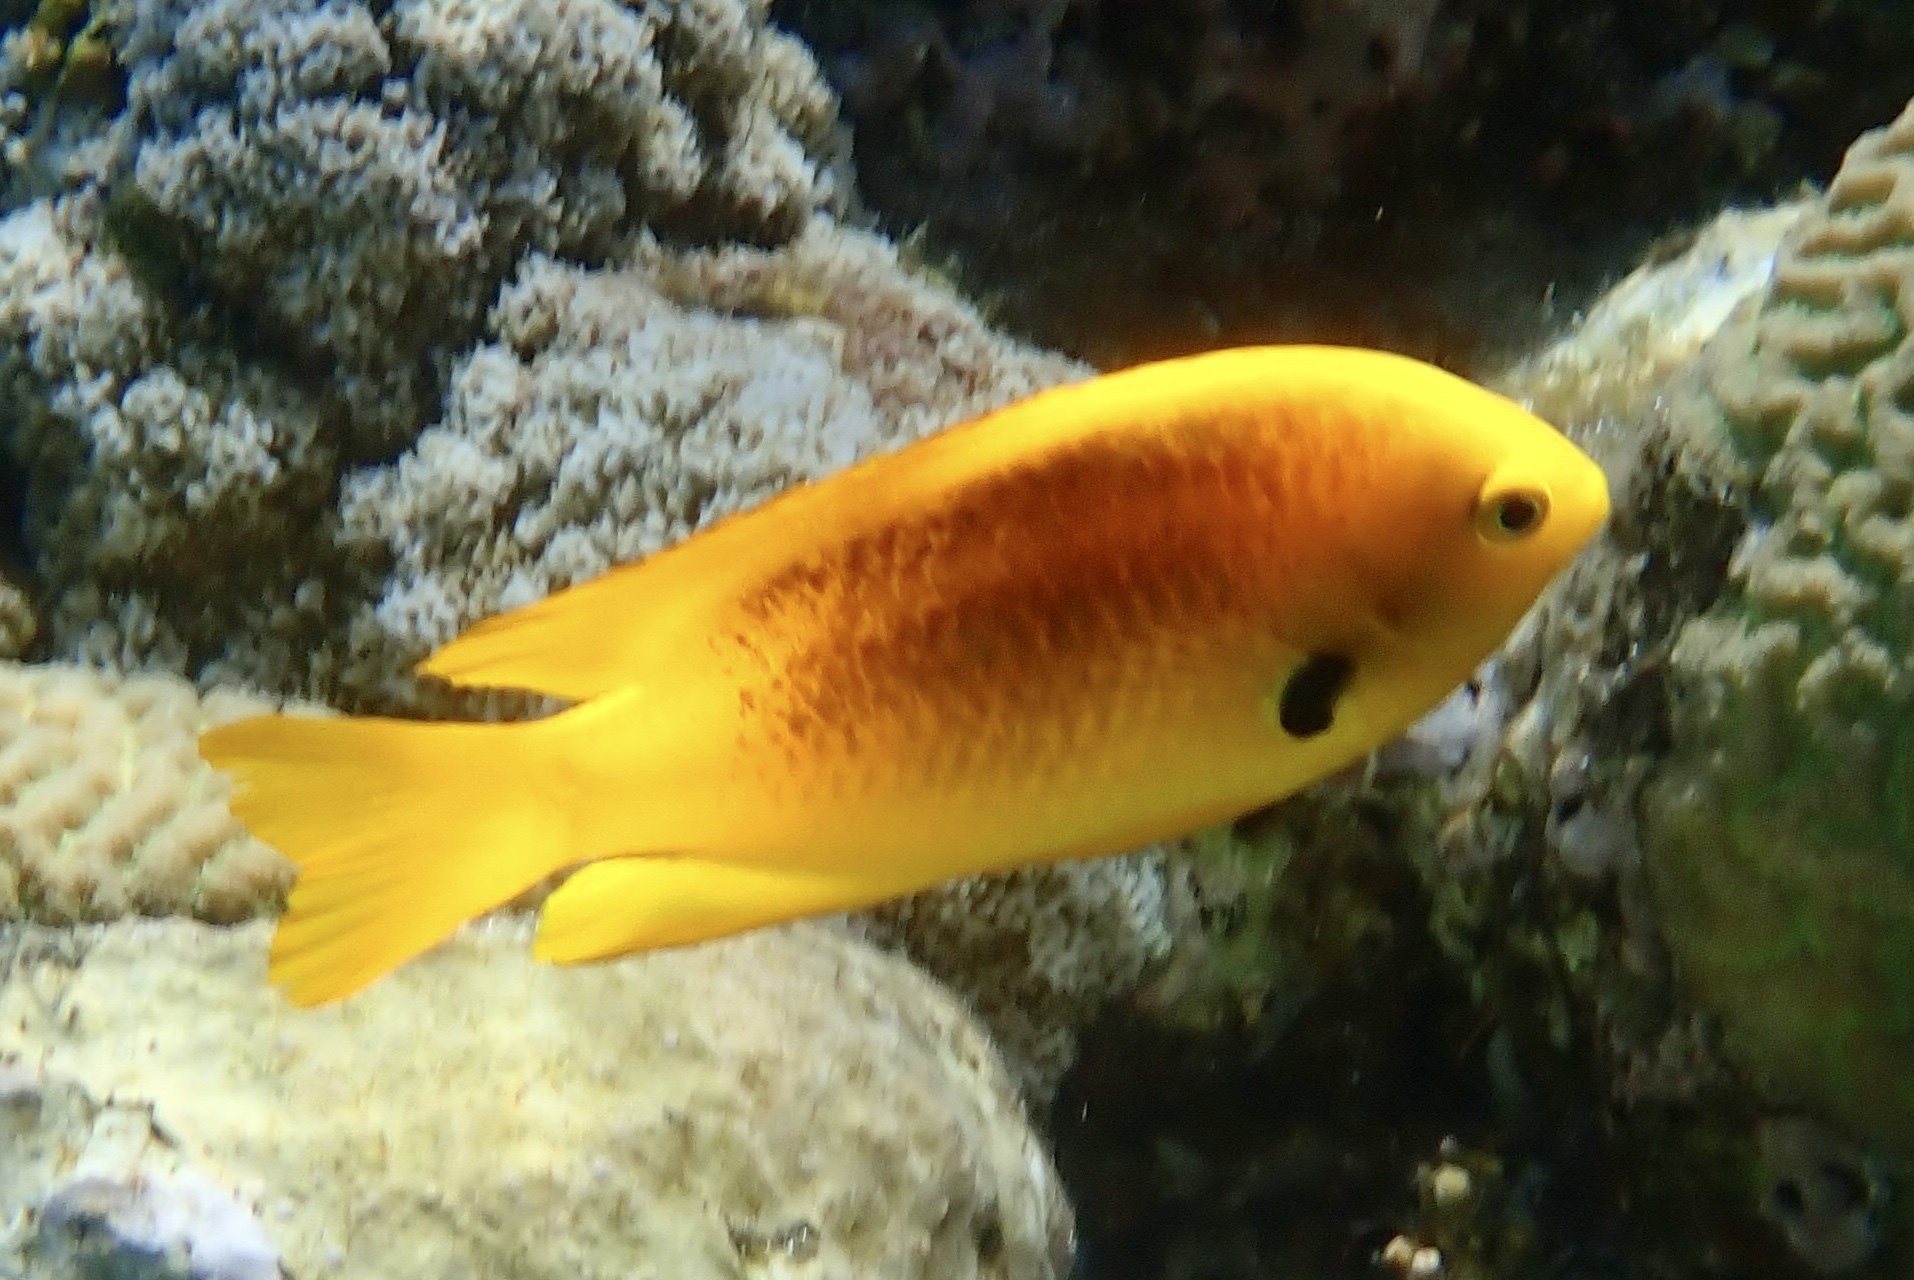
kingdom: Animalia
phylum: Chordata
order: Perciformes
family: Pomacentridae
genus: Pomacentrus
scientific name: Pomacentrus sulfureus
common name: Sulfur damsel
